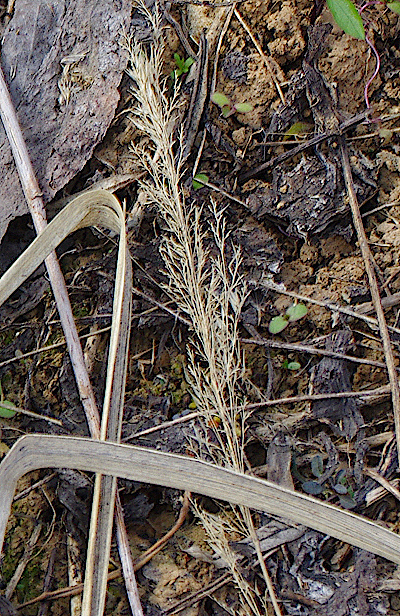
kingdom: Plantae
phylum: Tracheophyta
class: Liliopsida
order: Poales
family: Poaceae
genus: Calamagrostis
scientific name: Calamagrostis epigejos
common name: Wood small-reed
